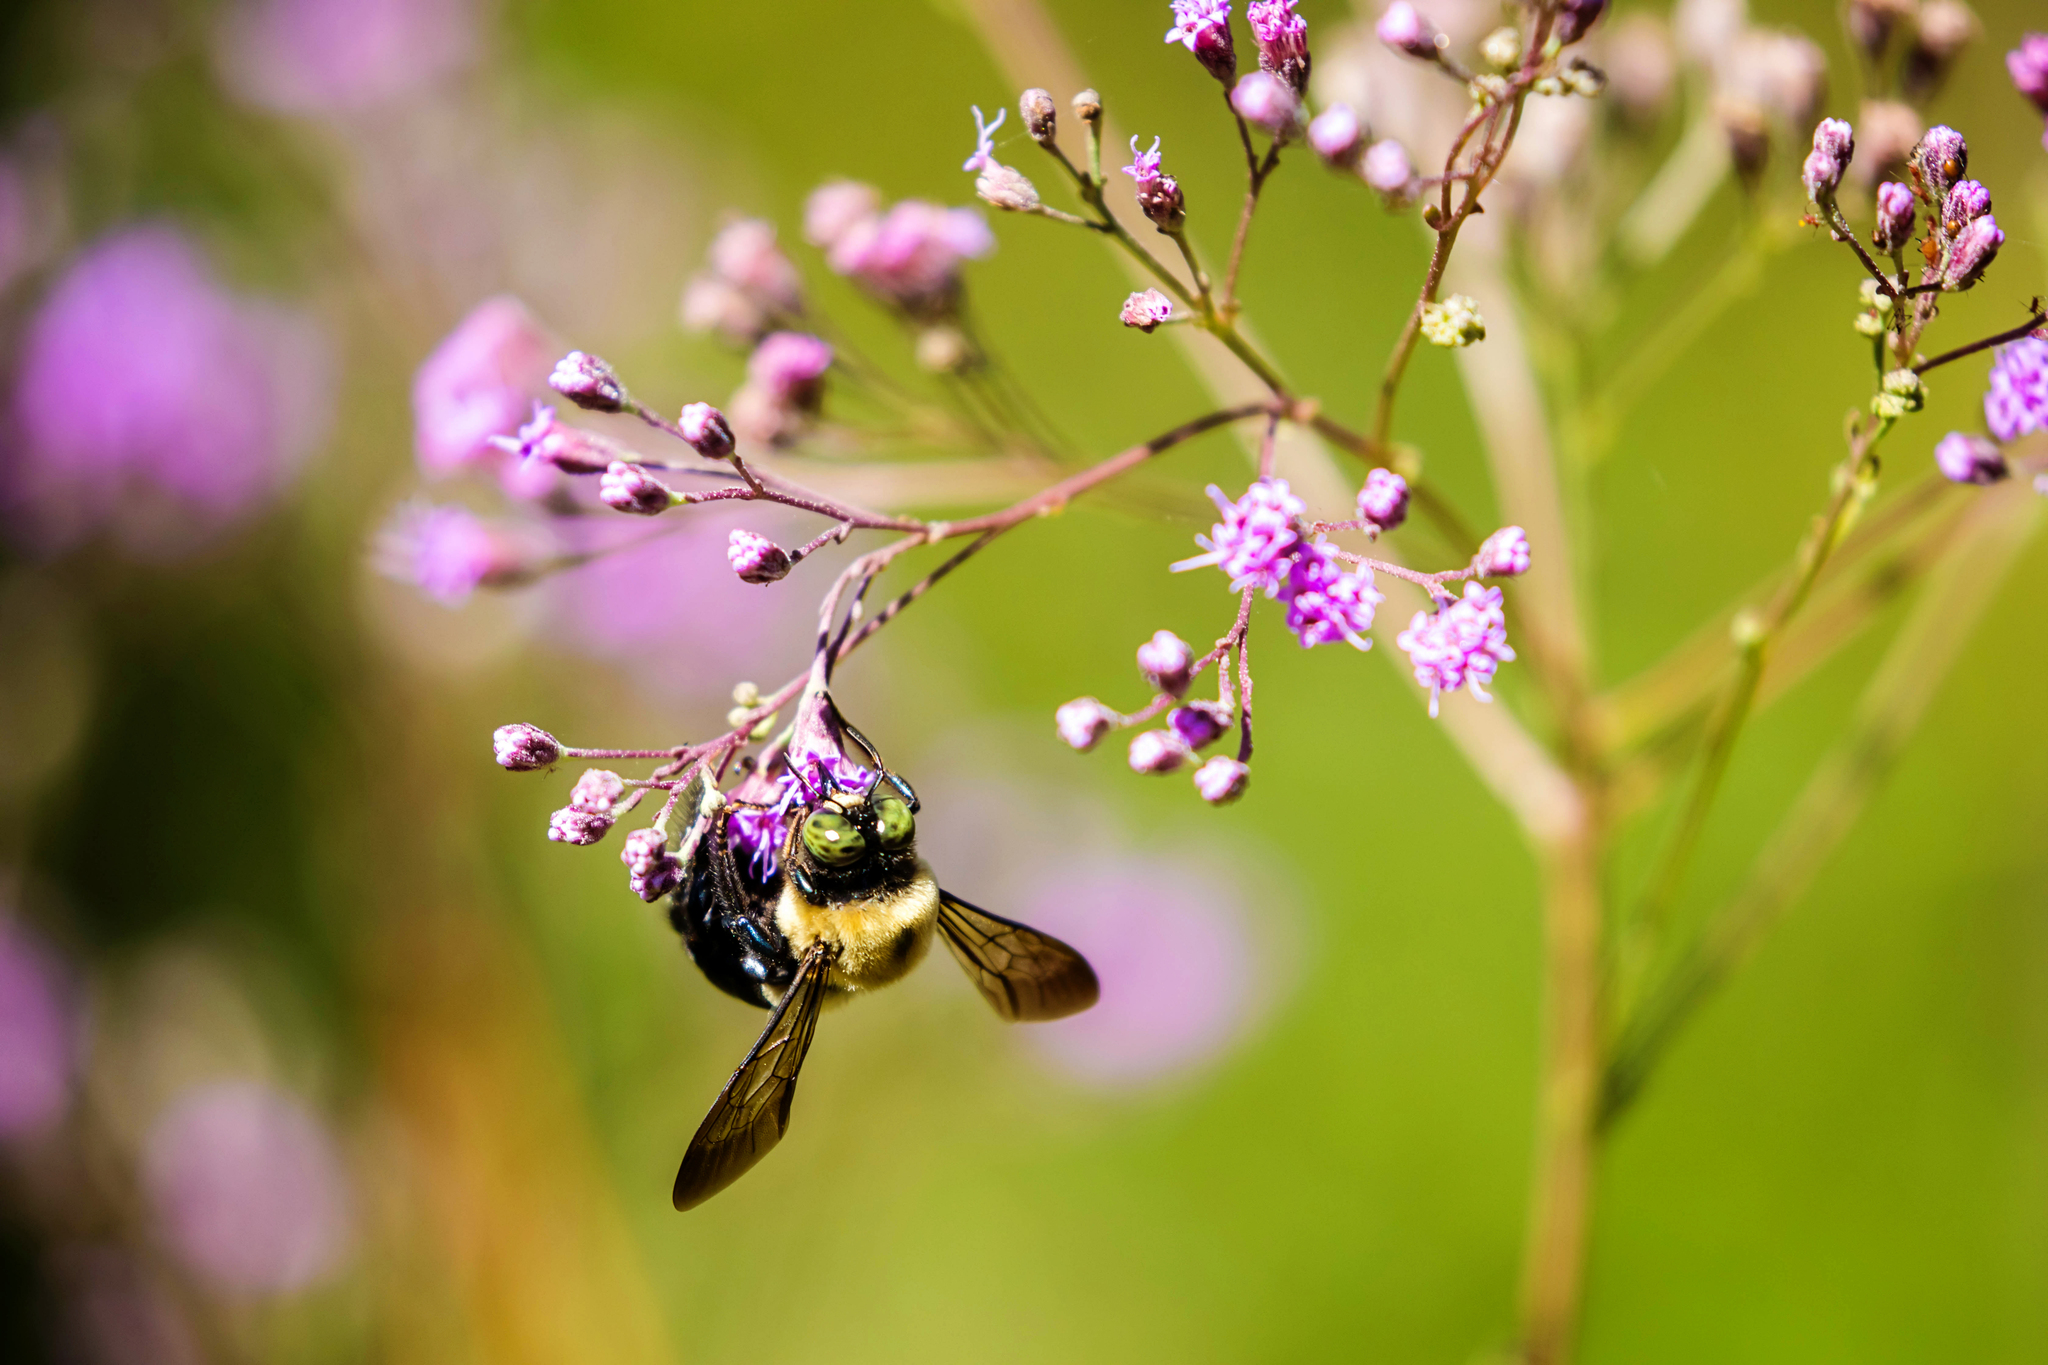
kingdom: Animalia
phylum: Arthropoda
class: Insecta
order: Hymenoptera
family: Apidae
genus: Xylocopa
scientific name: Xylocopa virginica
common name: Carpenter bee
